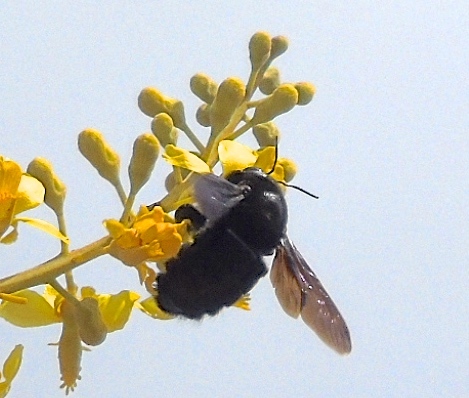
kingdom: Animalia
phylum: Arthropoda
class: Insecta
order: Hymenoptera
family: Apidae
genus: Xylocopa
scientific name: Xylocopa
